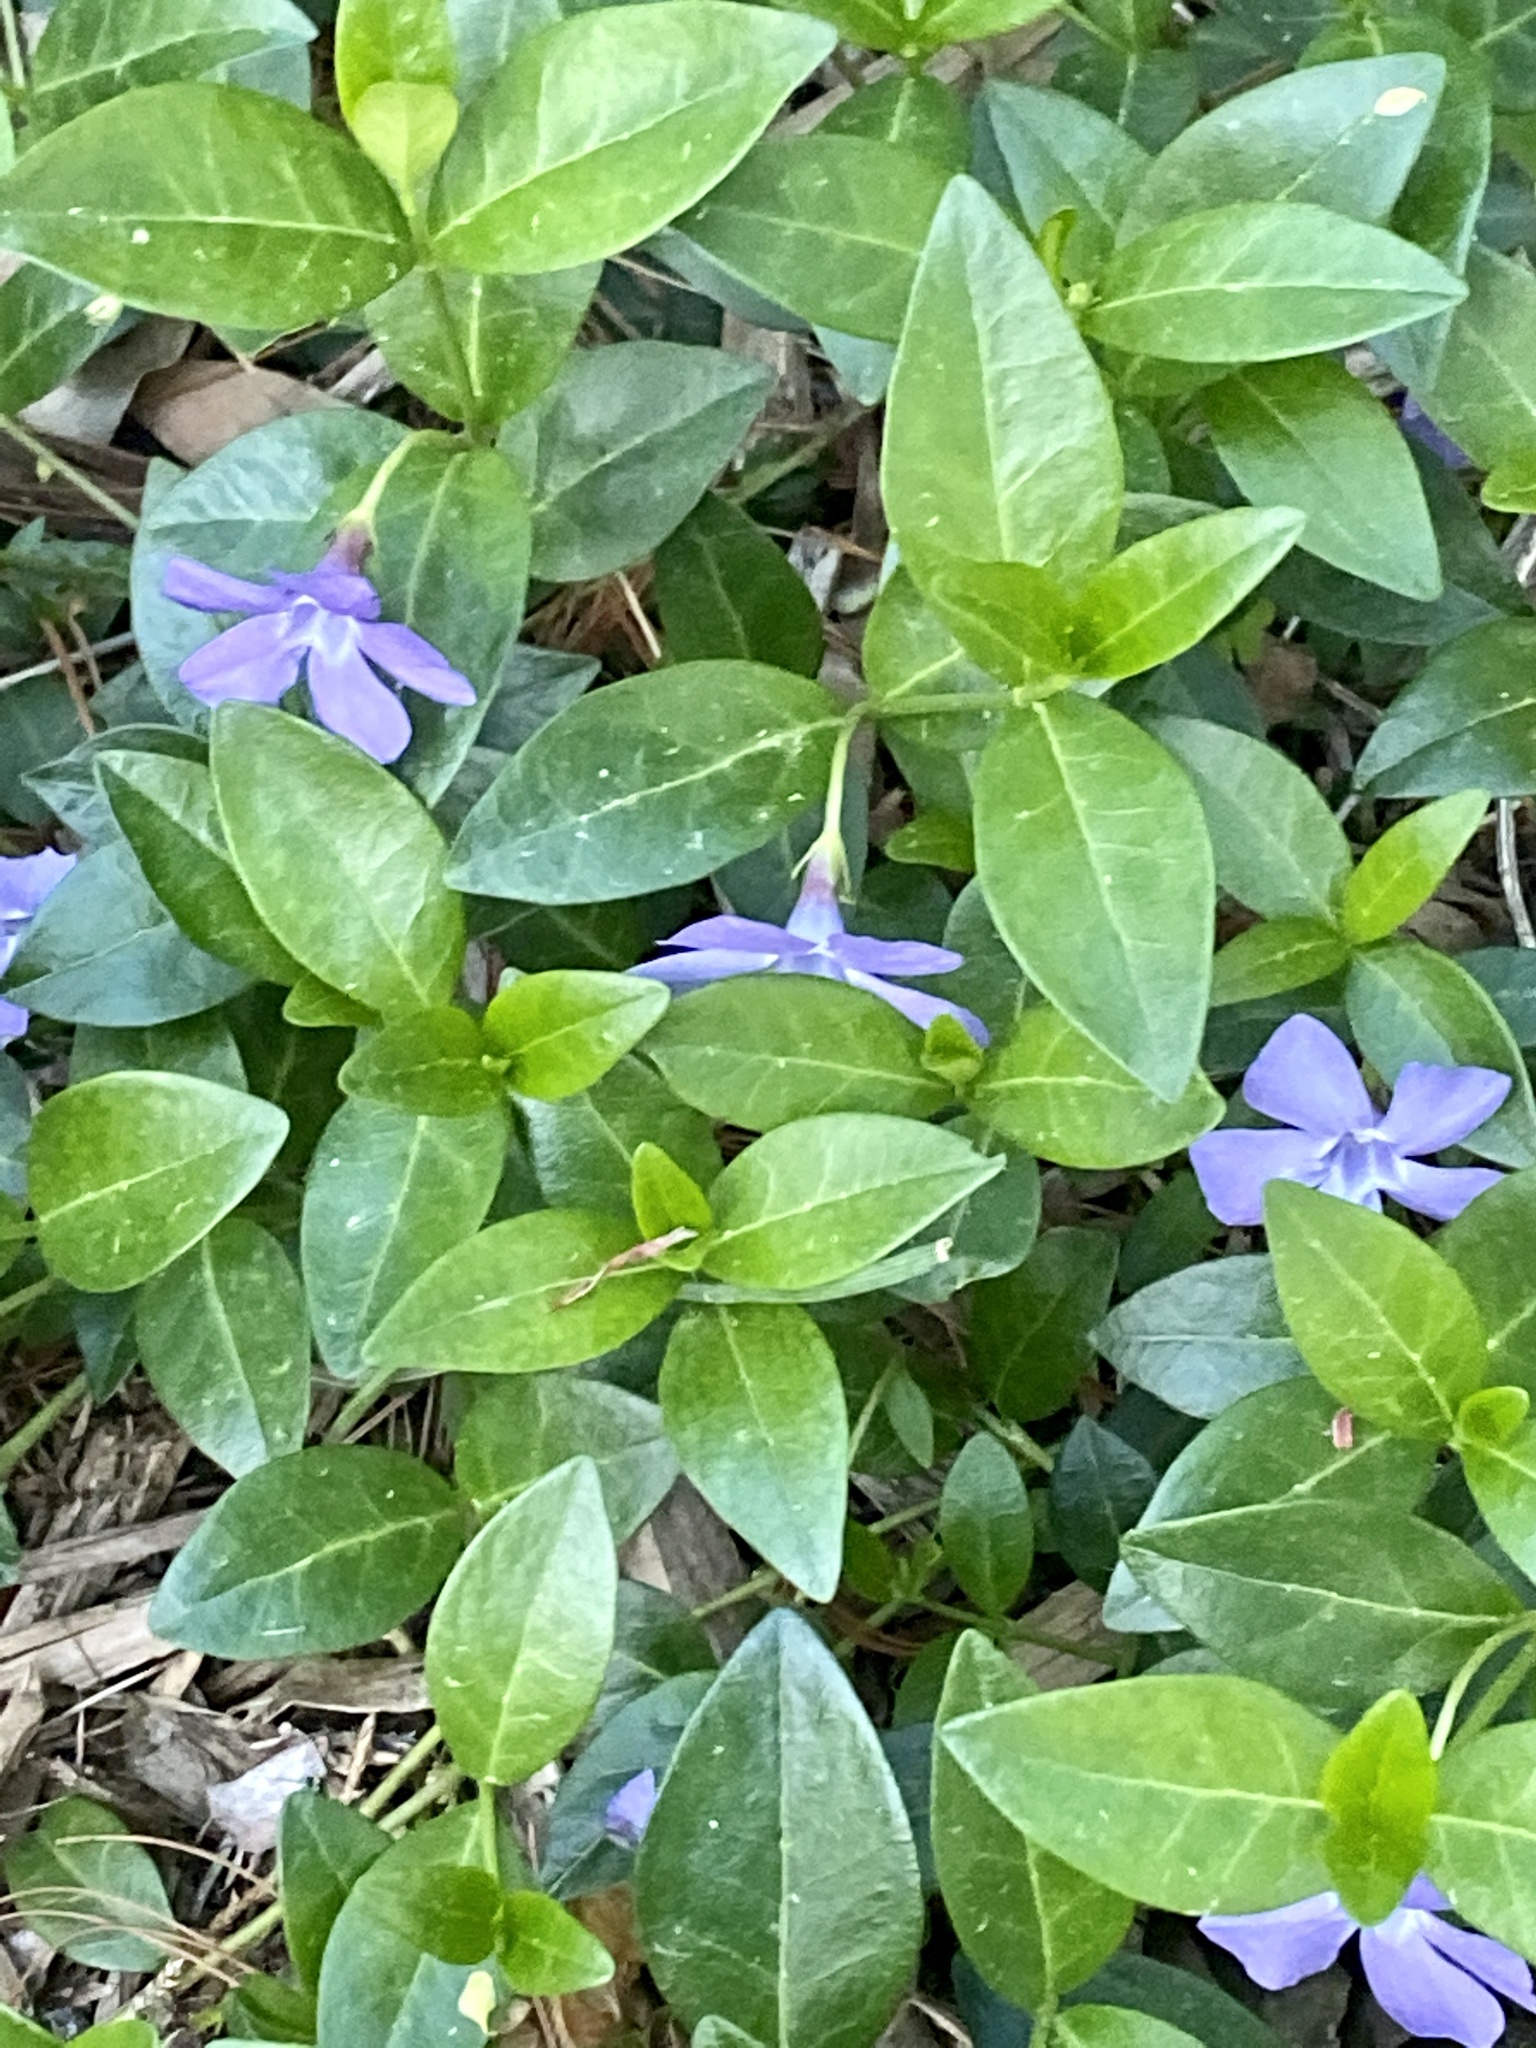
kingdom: Plantae
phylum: Tracheophyta
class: Magnoliopsida
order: Gentianales
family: Apocynaceae
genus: Vinca
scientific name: Vinca minor
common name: Lesser periwinkle
